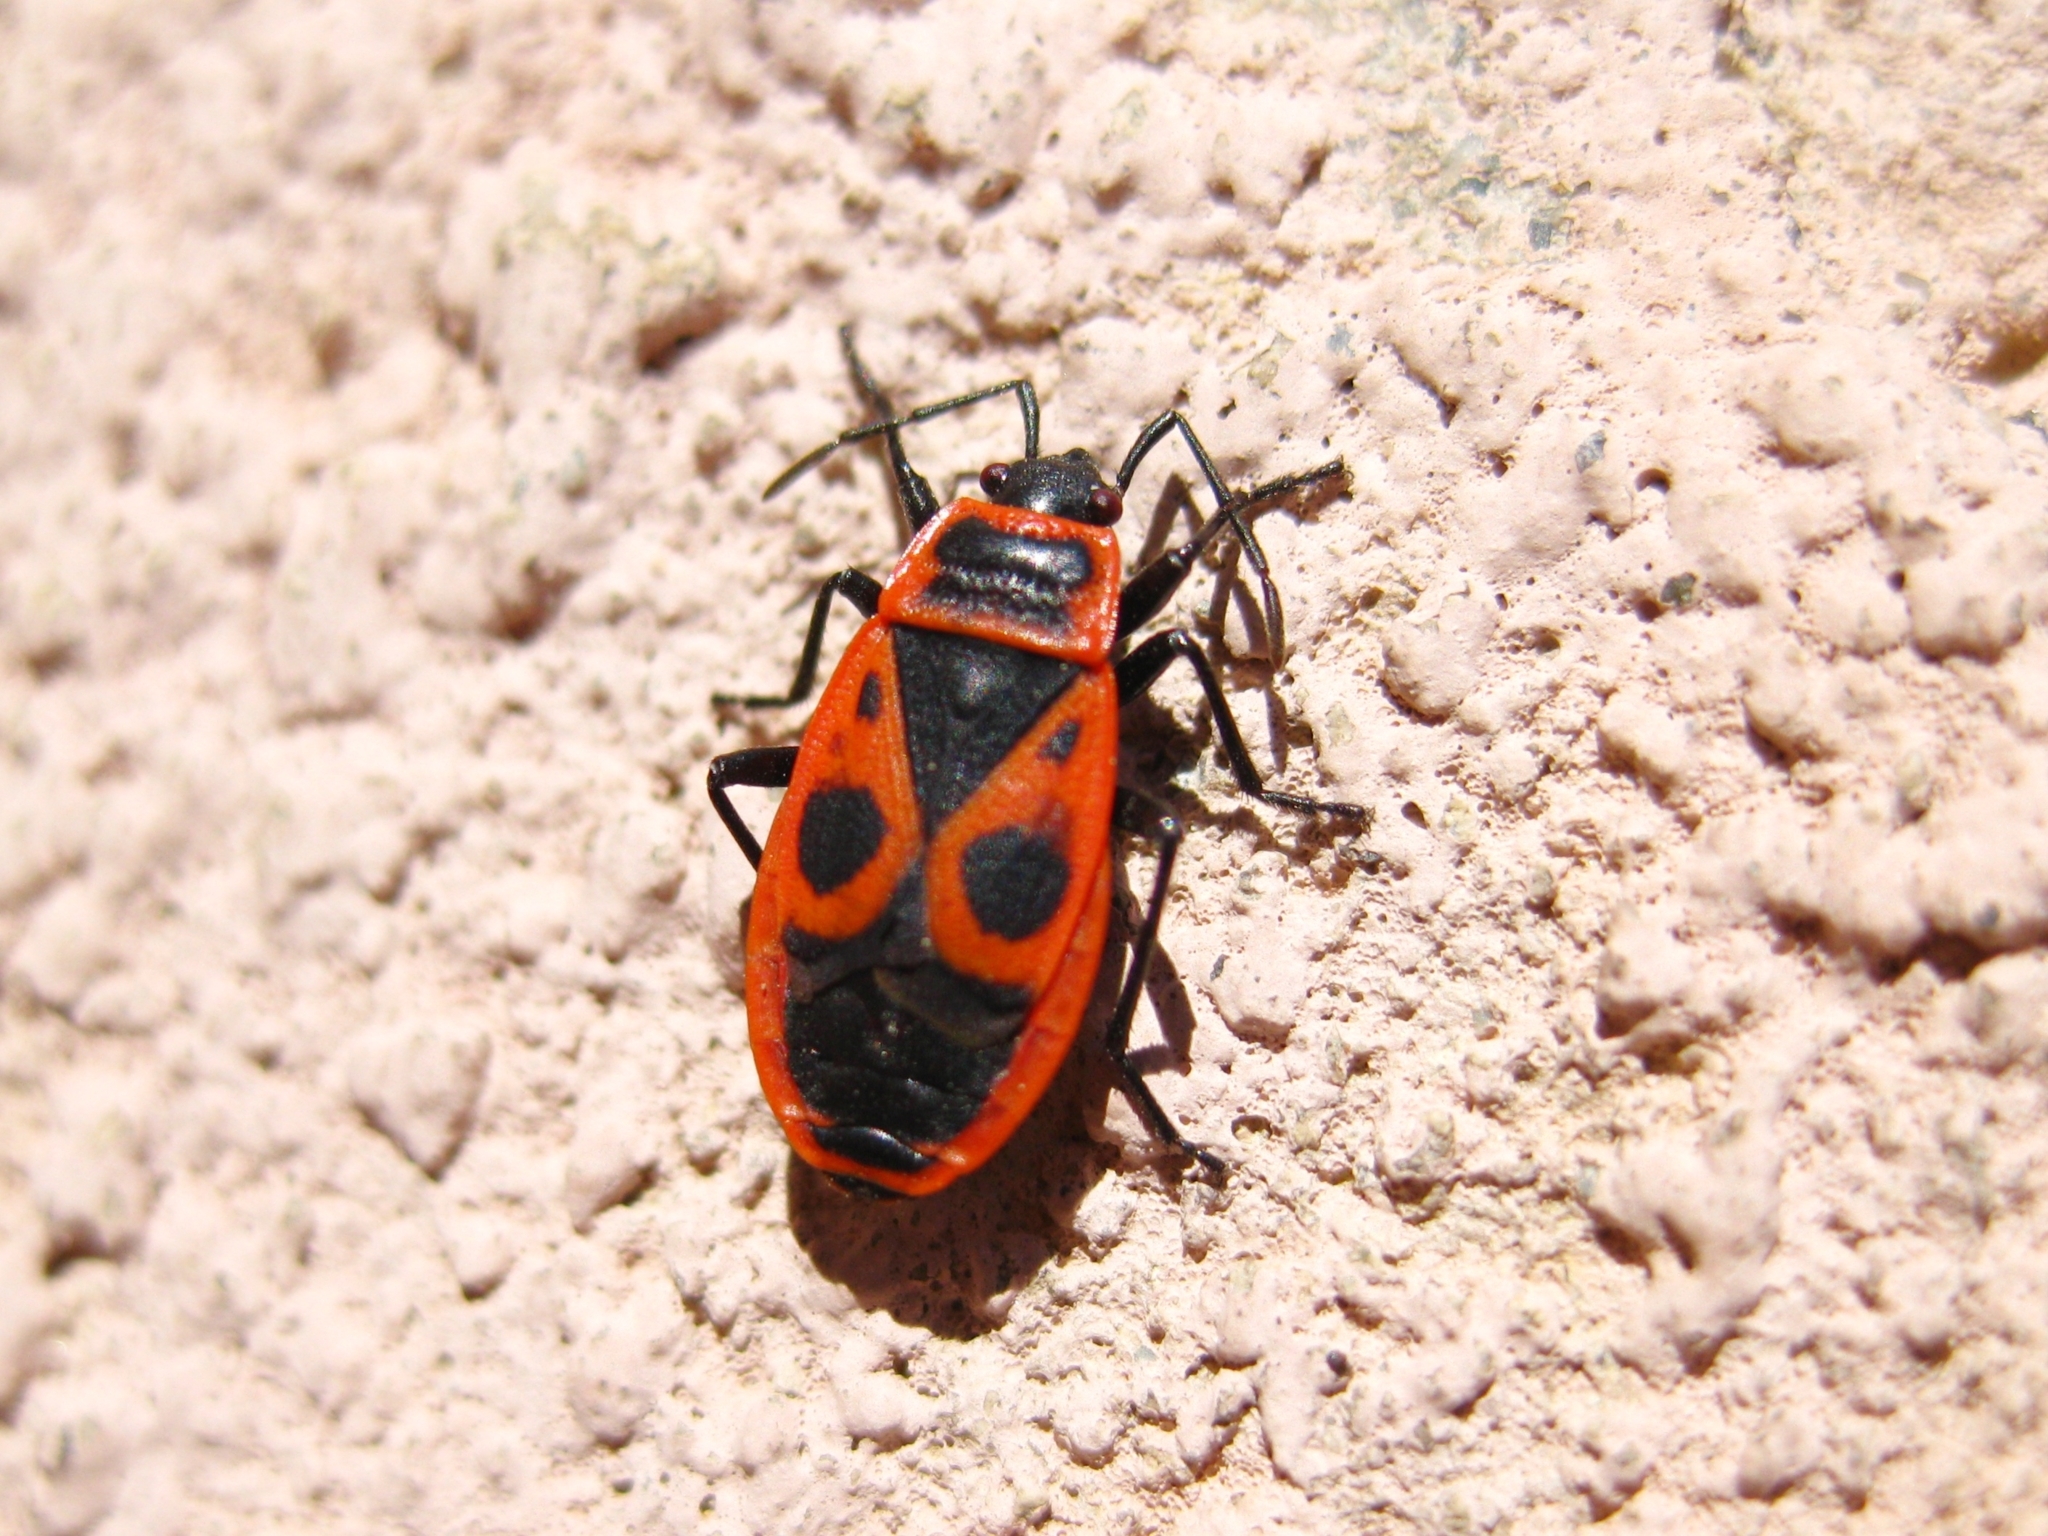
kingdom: Animalia
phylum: Arthropoda
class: Insecta
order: Hemiptera
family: Pyrrhocoridae
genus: Pyrrhocoris
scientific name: Pyrrhocoris apterus
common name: Firebug
